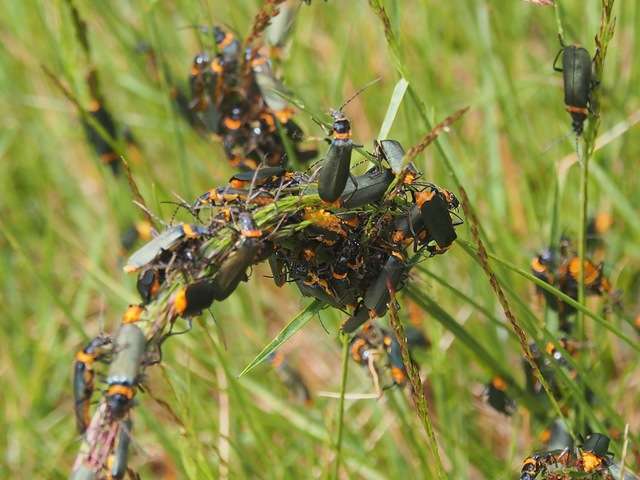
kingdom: Animalia
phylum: Arthropoda
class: Insecta
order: Coleoptera
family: Cantharidae
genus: Chauliognathus
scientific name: Chauliognathus
